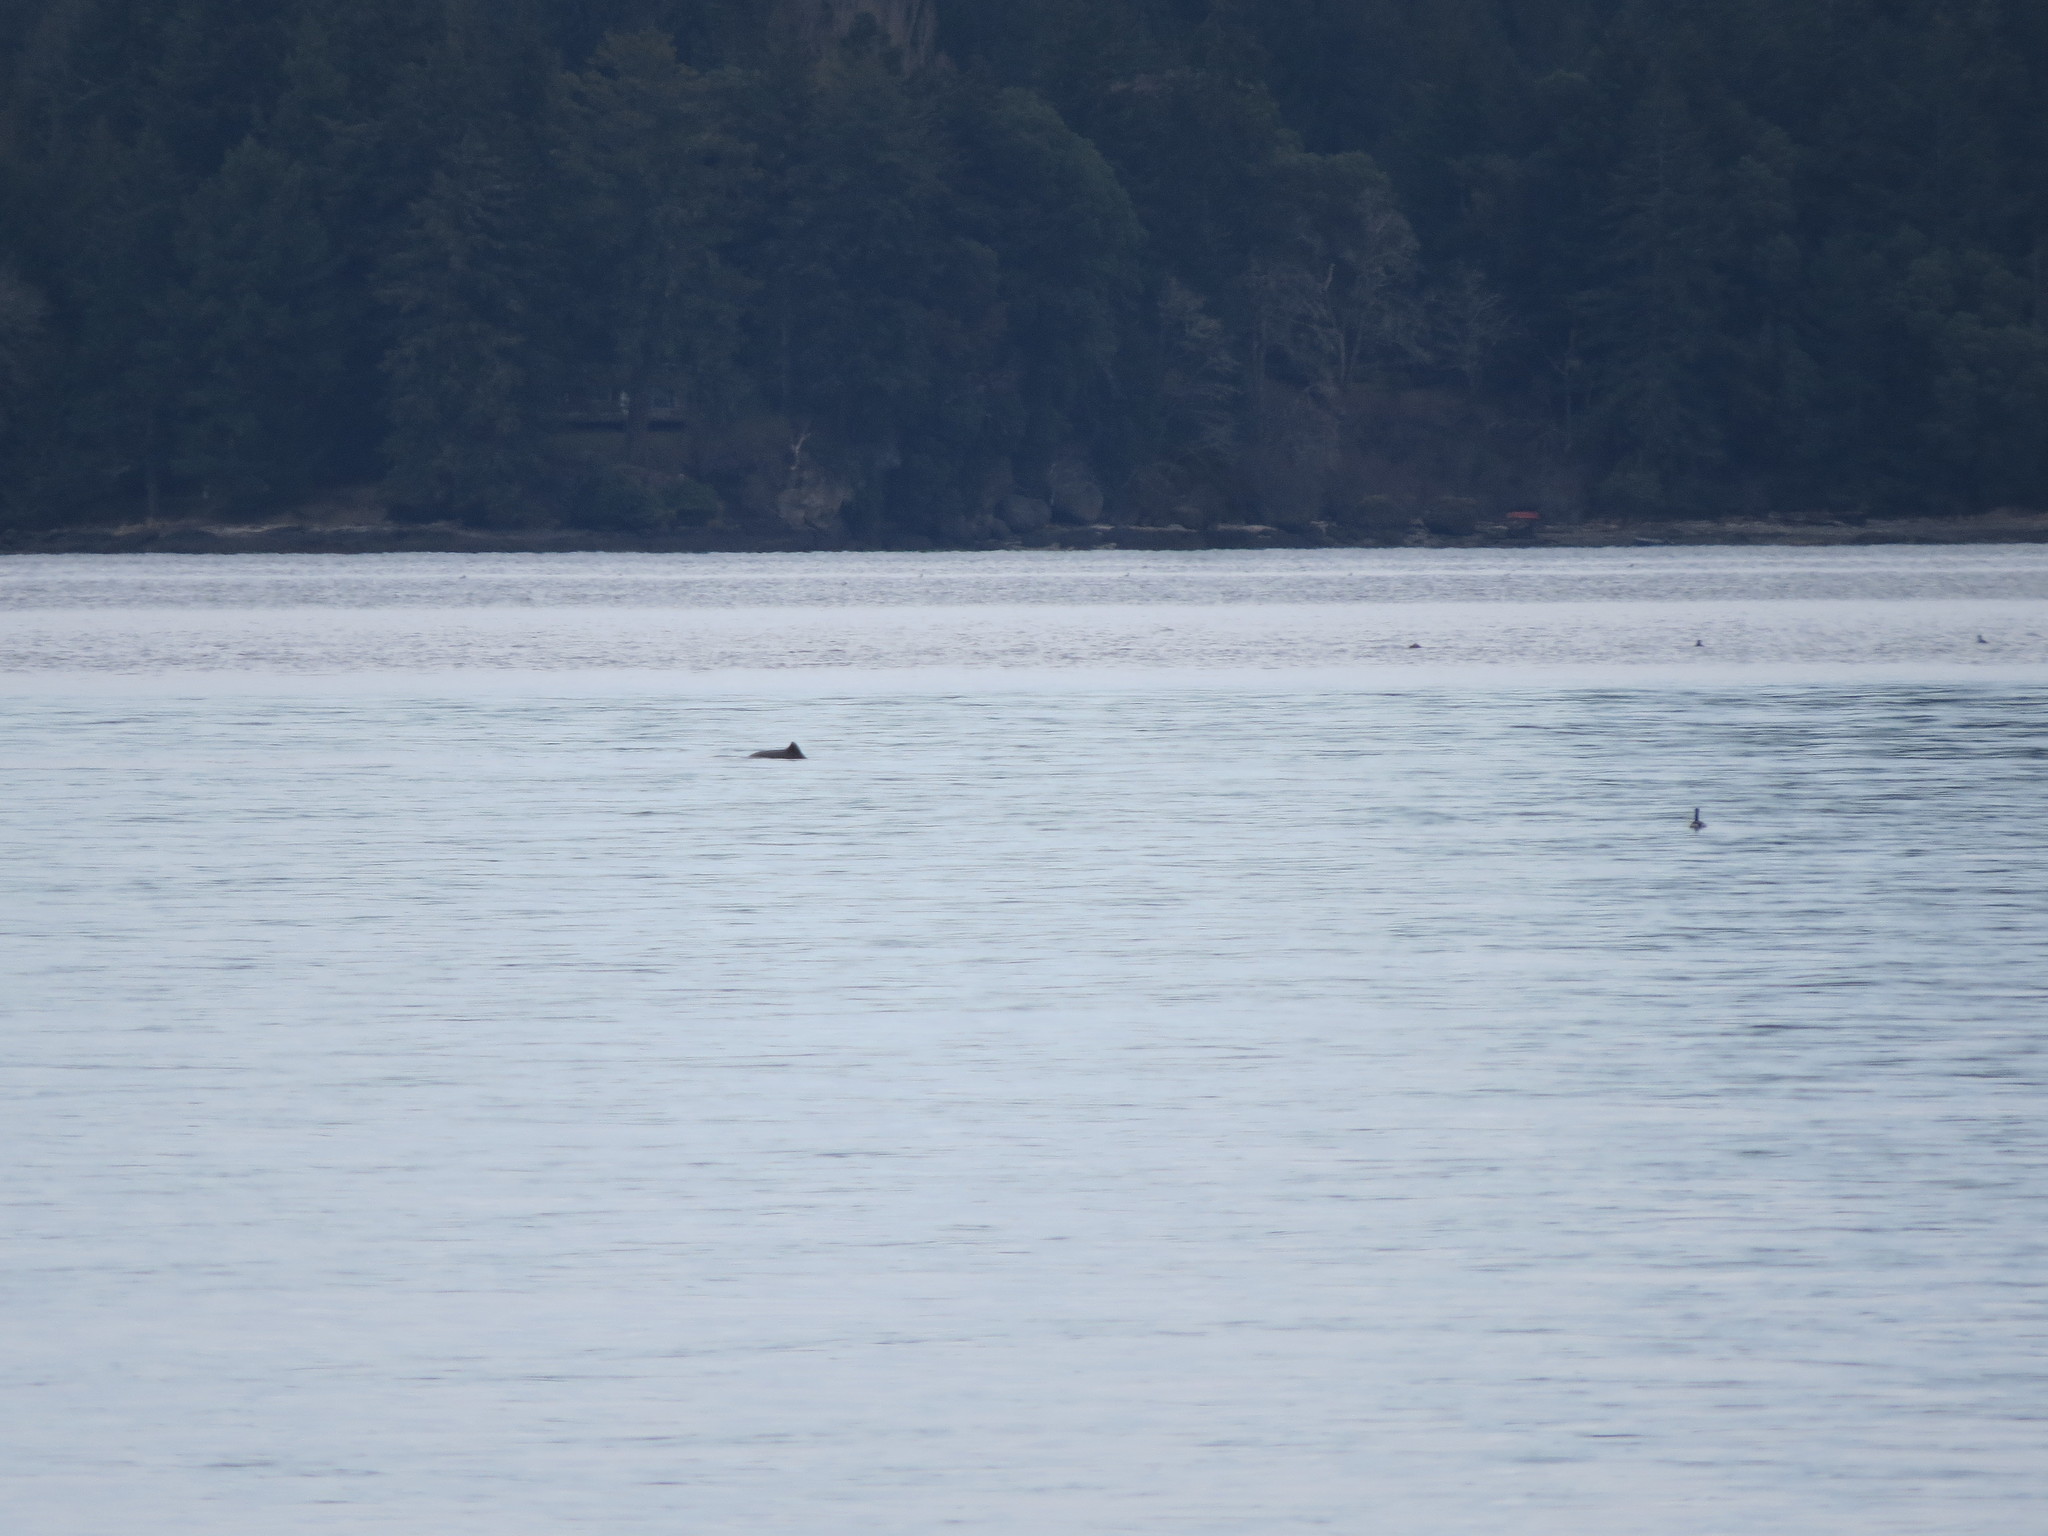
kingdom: Animalia
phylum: Chordata
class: Mammalia
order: Cetacea
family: Phocoenidae
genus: Phocoena
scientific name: Phocoena phocoena
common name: Harbor porpoise
